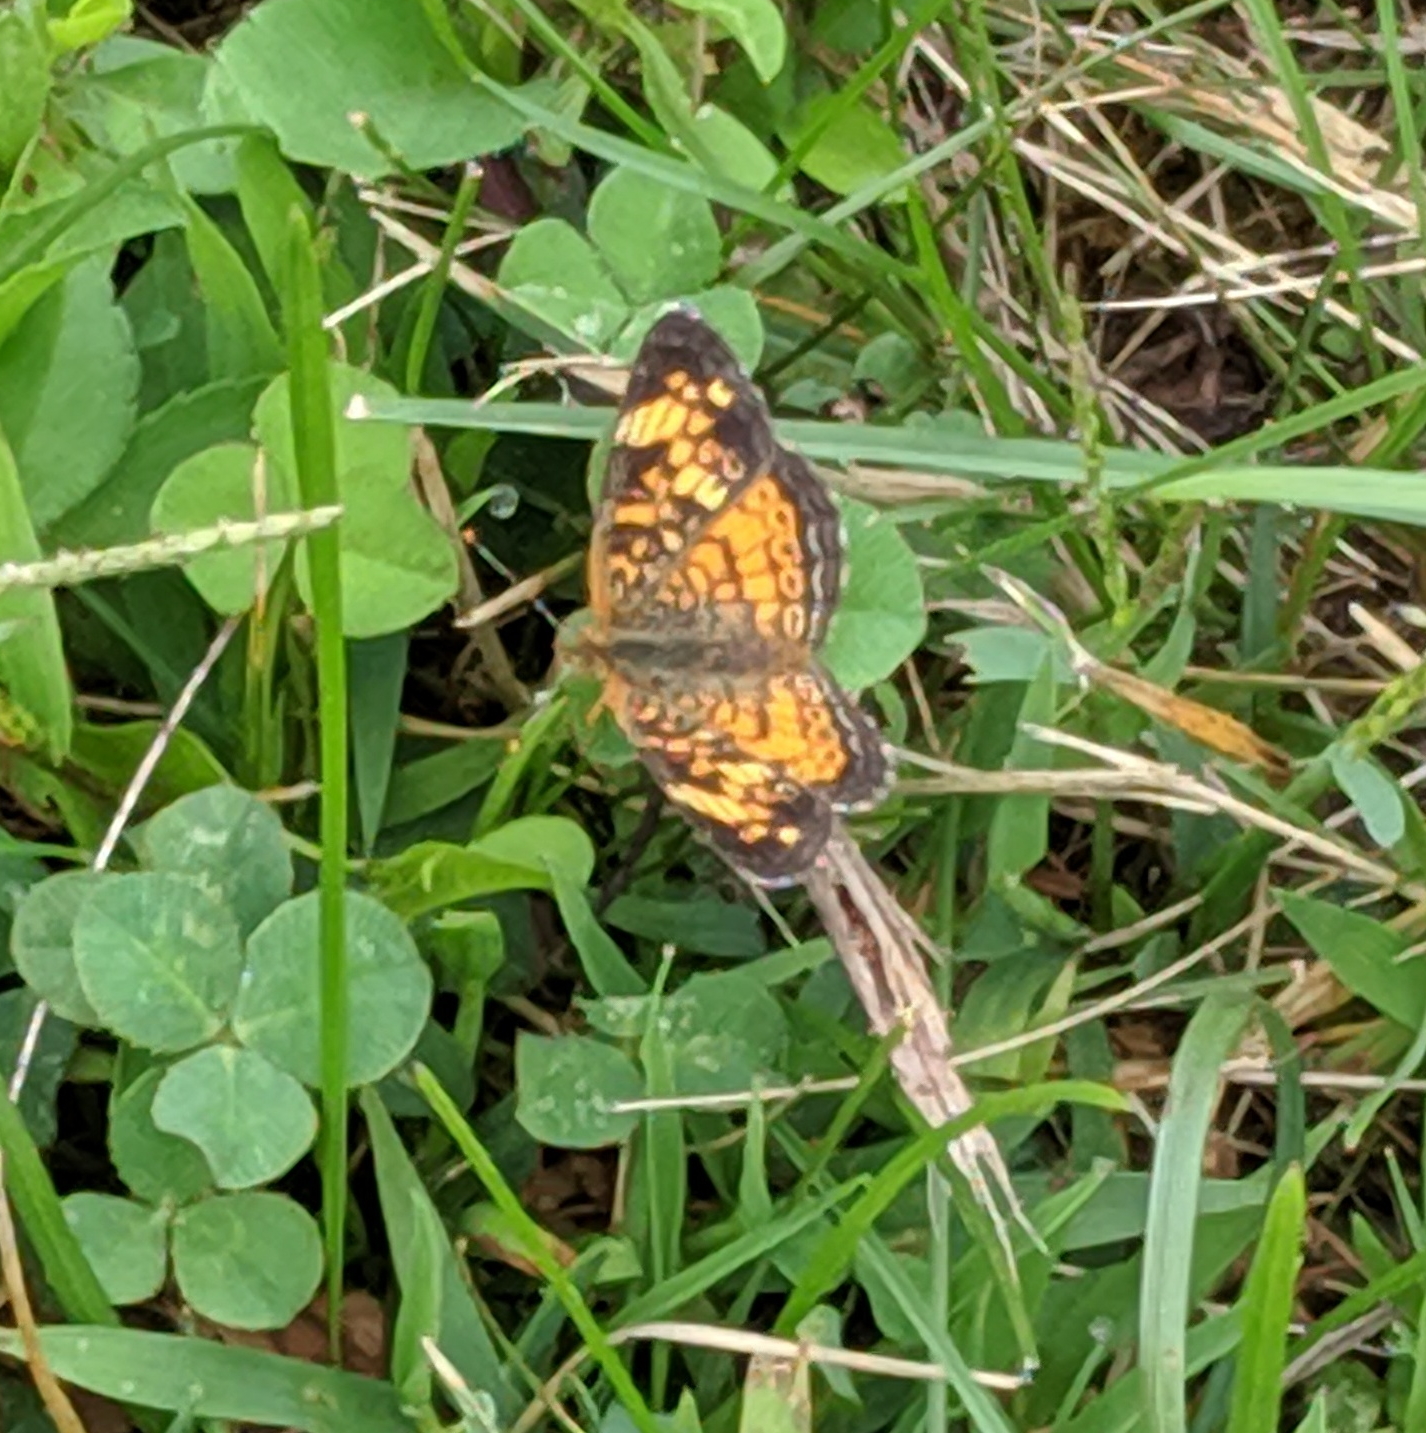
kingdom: Animalia
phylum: Arthropoda
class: Insecta
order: Lepidoptera
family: Nymphalidae
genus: Phyciodes
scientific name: Phyciodes tharos
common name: Pearl crescent
